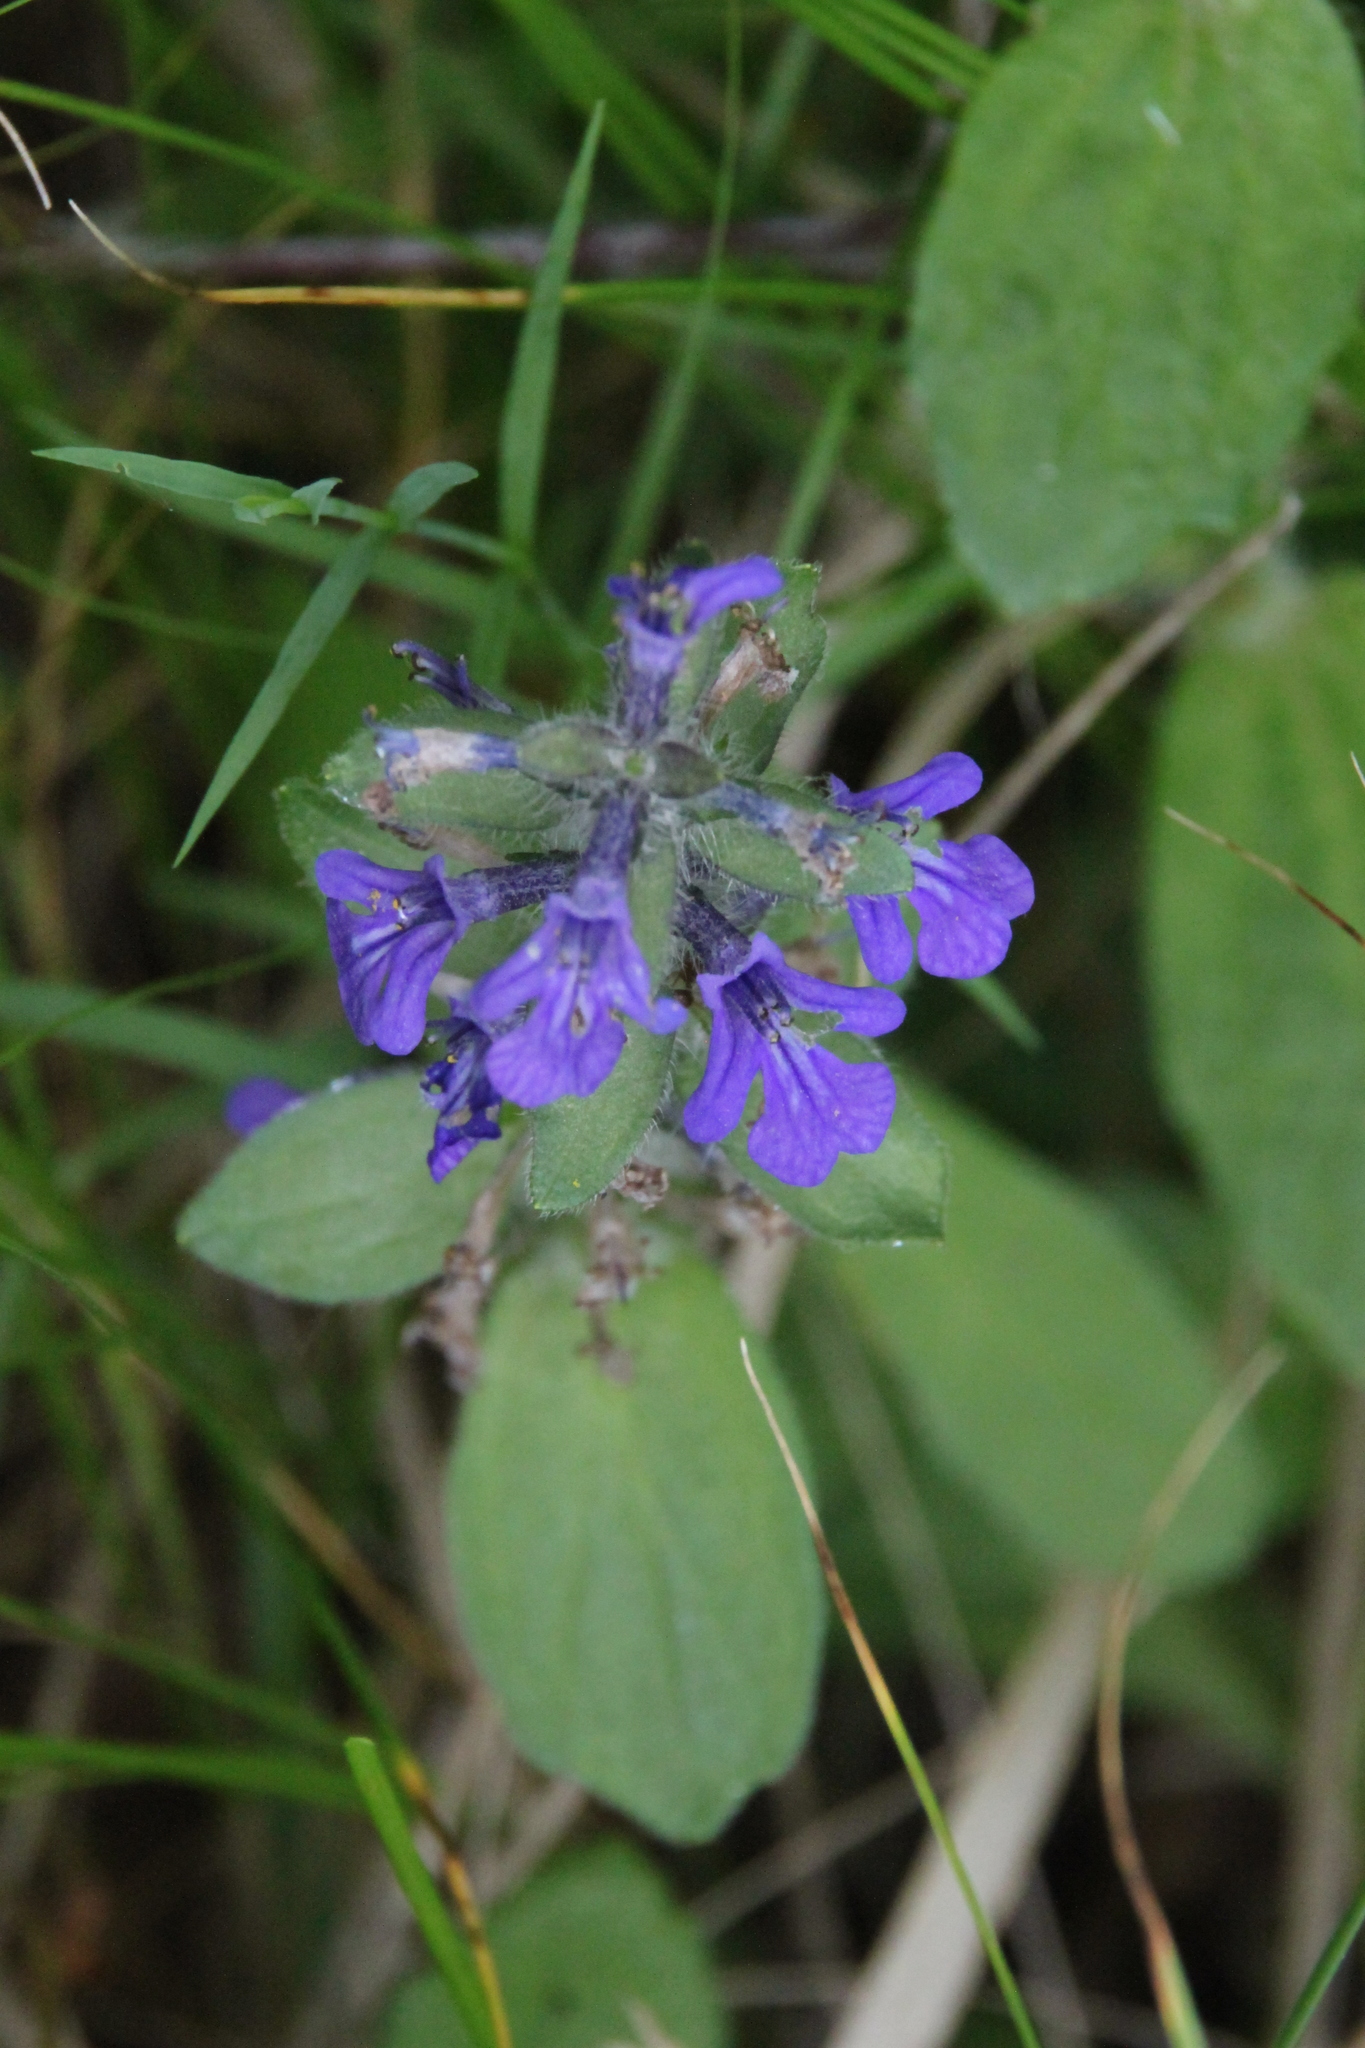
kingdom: Plantae
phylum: Tracheophyta
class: Magnoliopsida
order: Lamiales
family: Lamiaceae
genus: Ajuga
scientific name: Ajuga reptans
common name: Bugle
